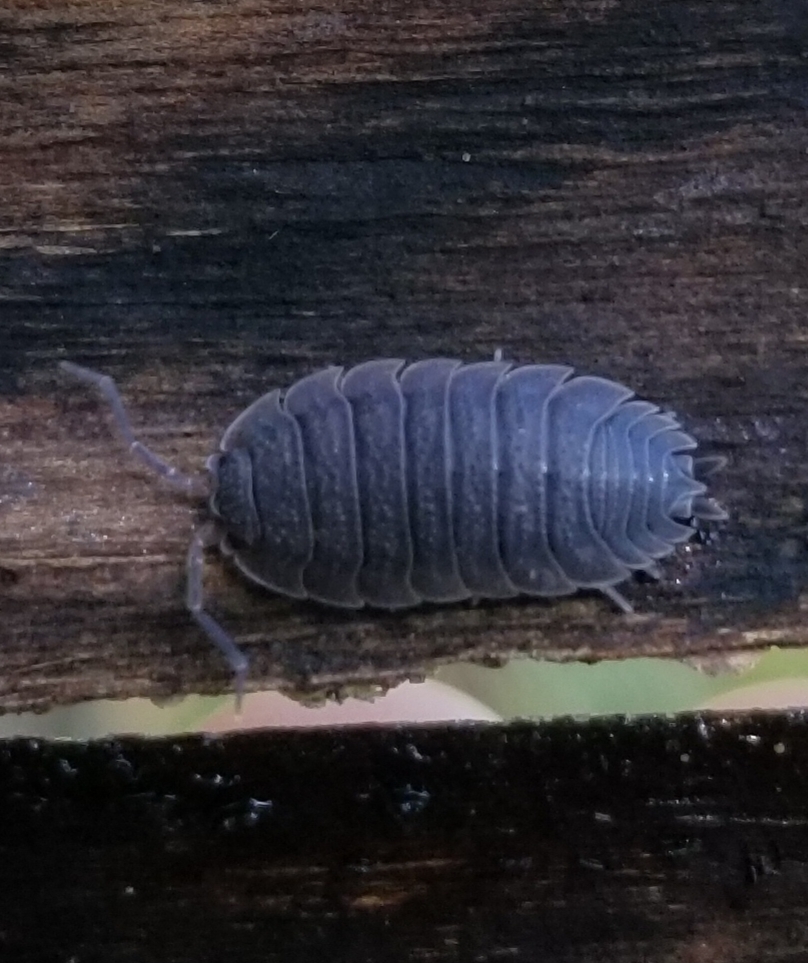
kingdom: Animalia
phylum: Arthropoda
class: Malacostraca
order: Isopoda
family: Porcellionidae
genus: Porcellio
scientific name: Porcellio scaber
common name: Common rough woodlouse
